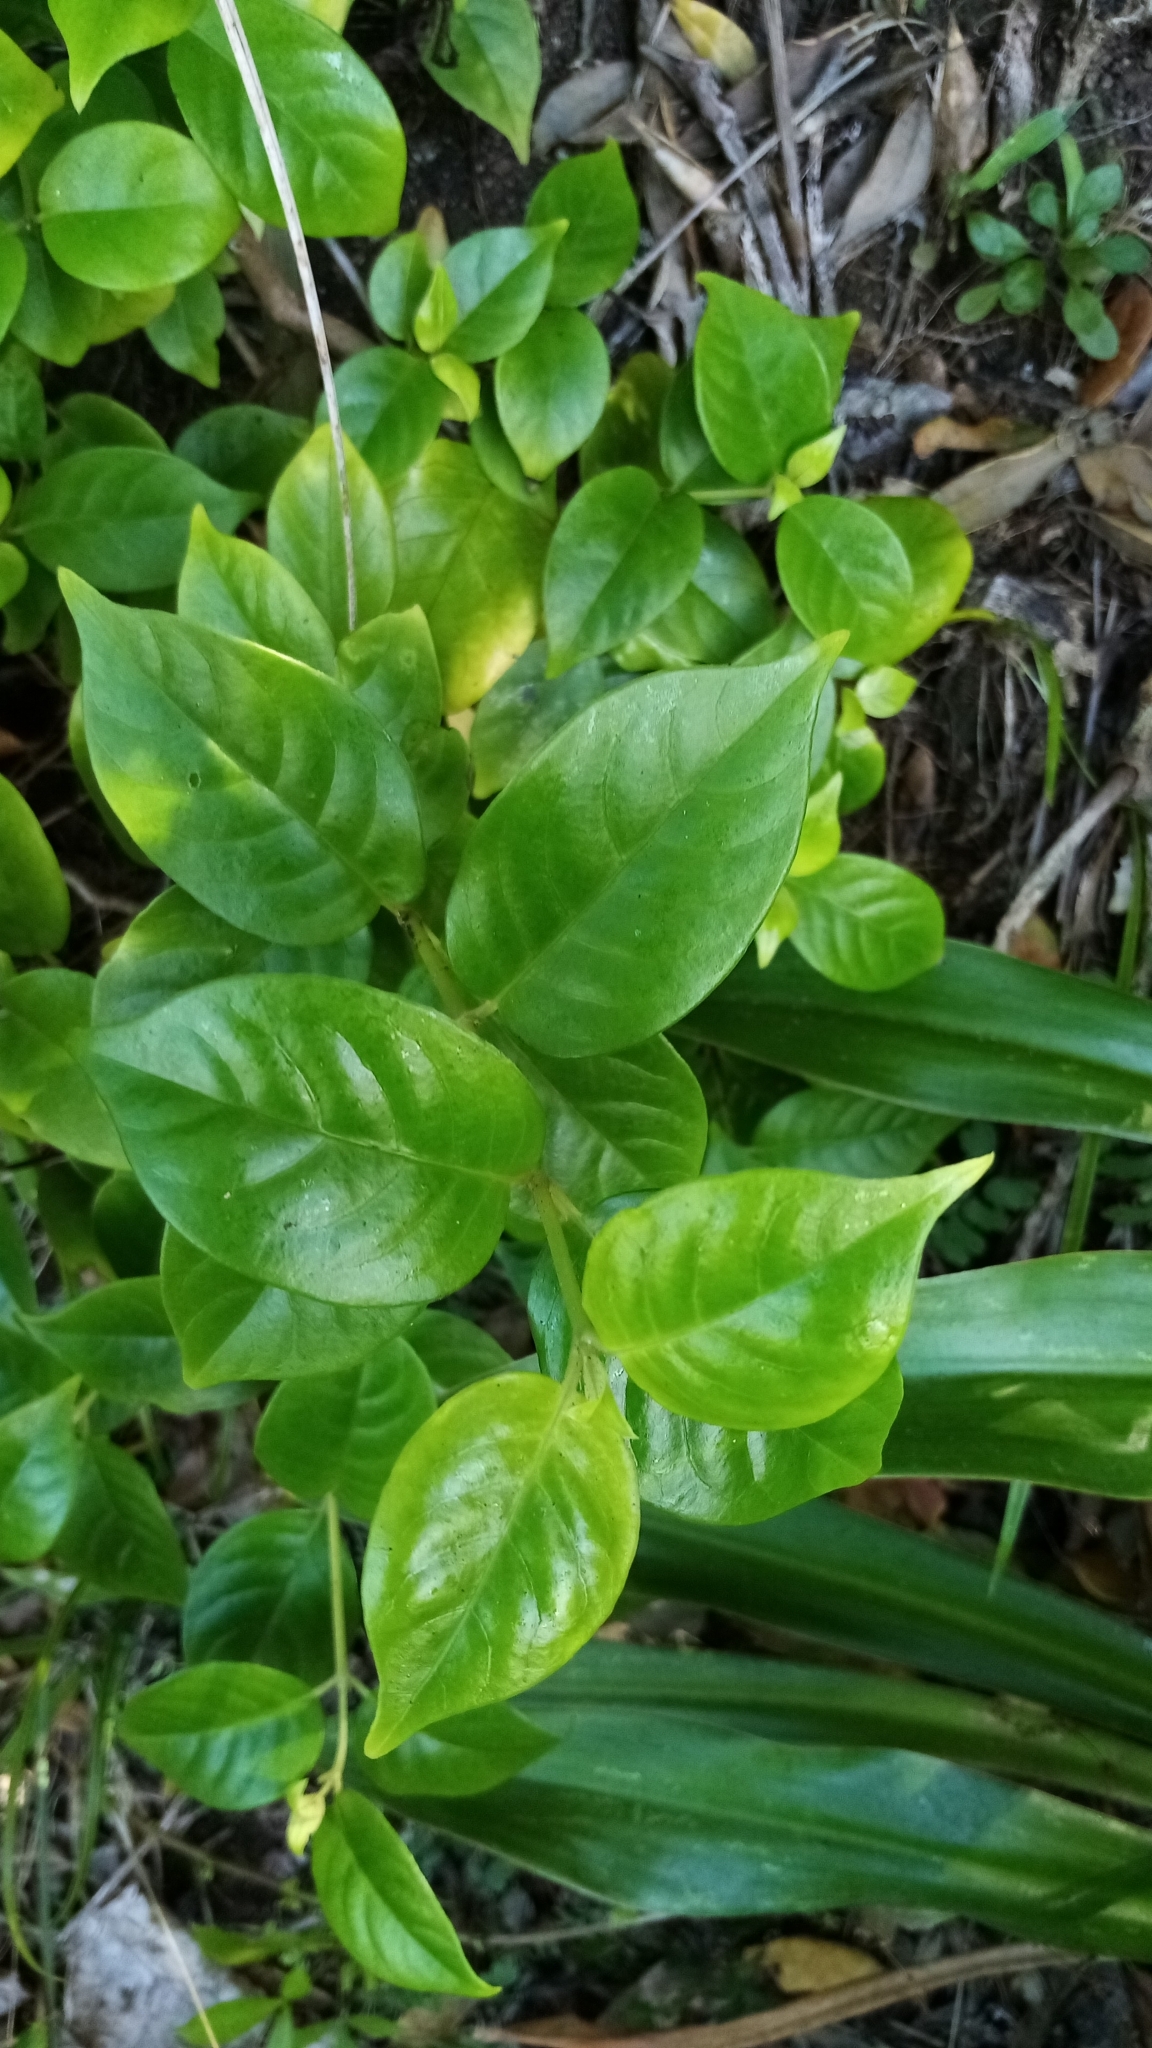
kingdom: Plantae
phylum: Tracheophyta
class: Magnoliopsida
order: Gentianales
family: Loganiaceae
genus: Geniostoma
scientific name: Geniostoma ligustrifolium
